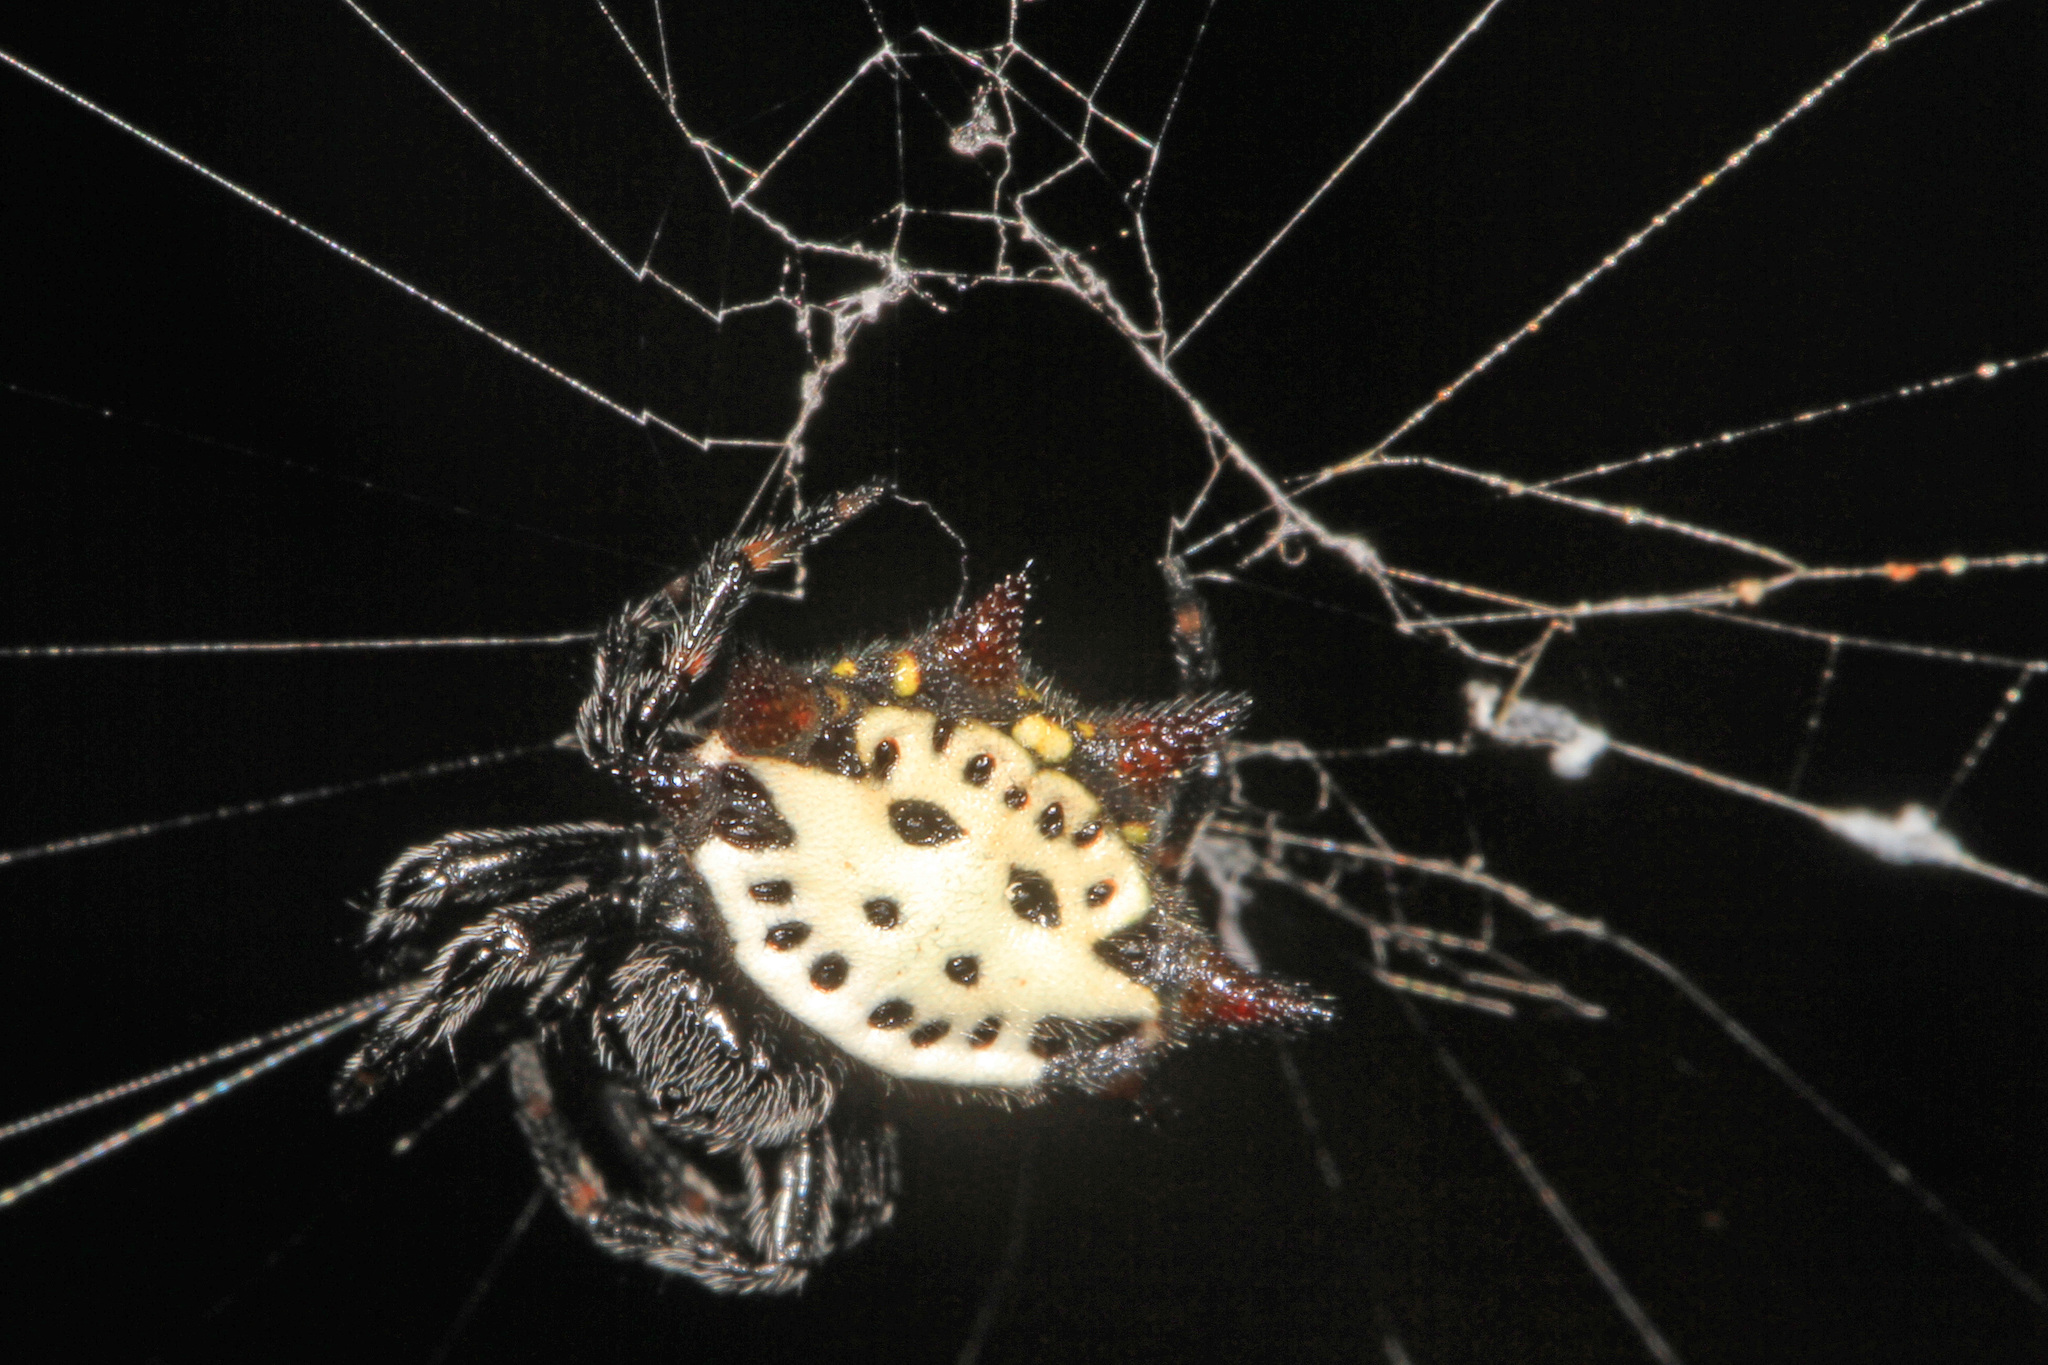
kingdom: Animalia
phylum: Arthropoda
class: Arachnida
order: Araneae
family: Araneidae
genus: Gasteracantha
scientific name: Gasteracantha cancriformis
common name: Orb weavers
